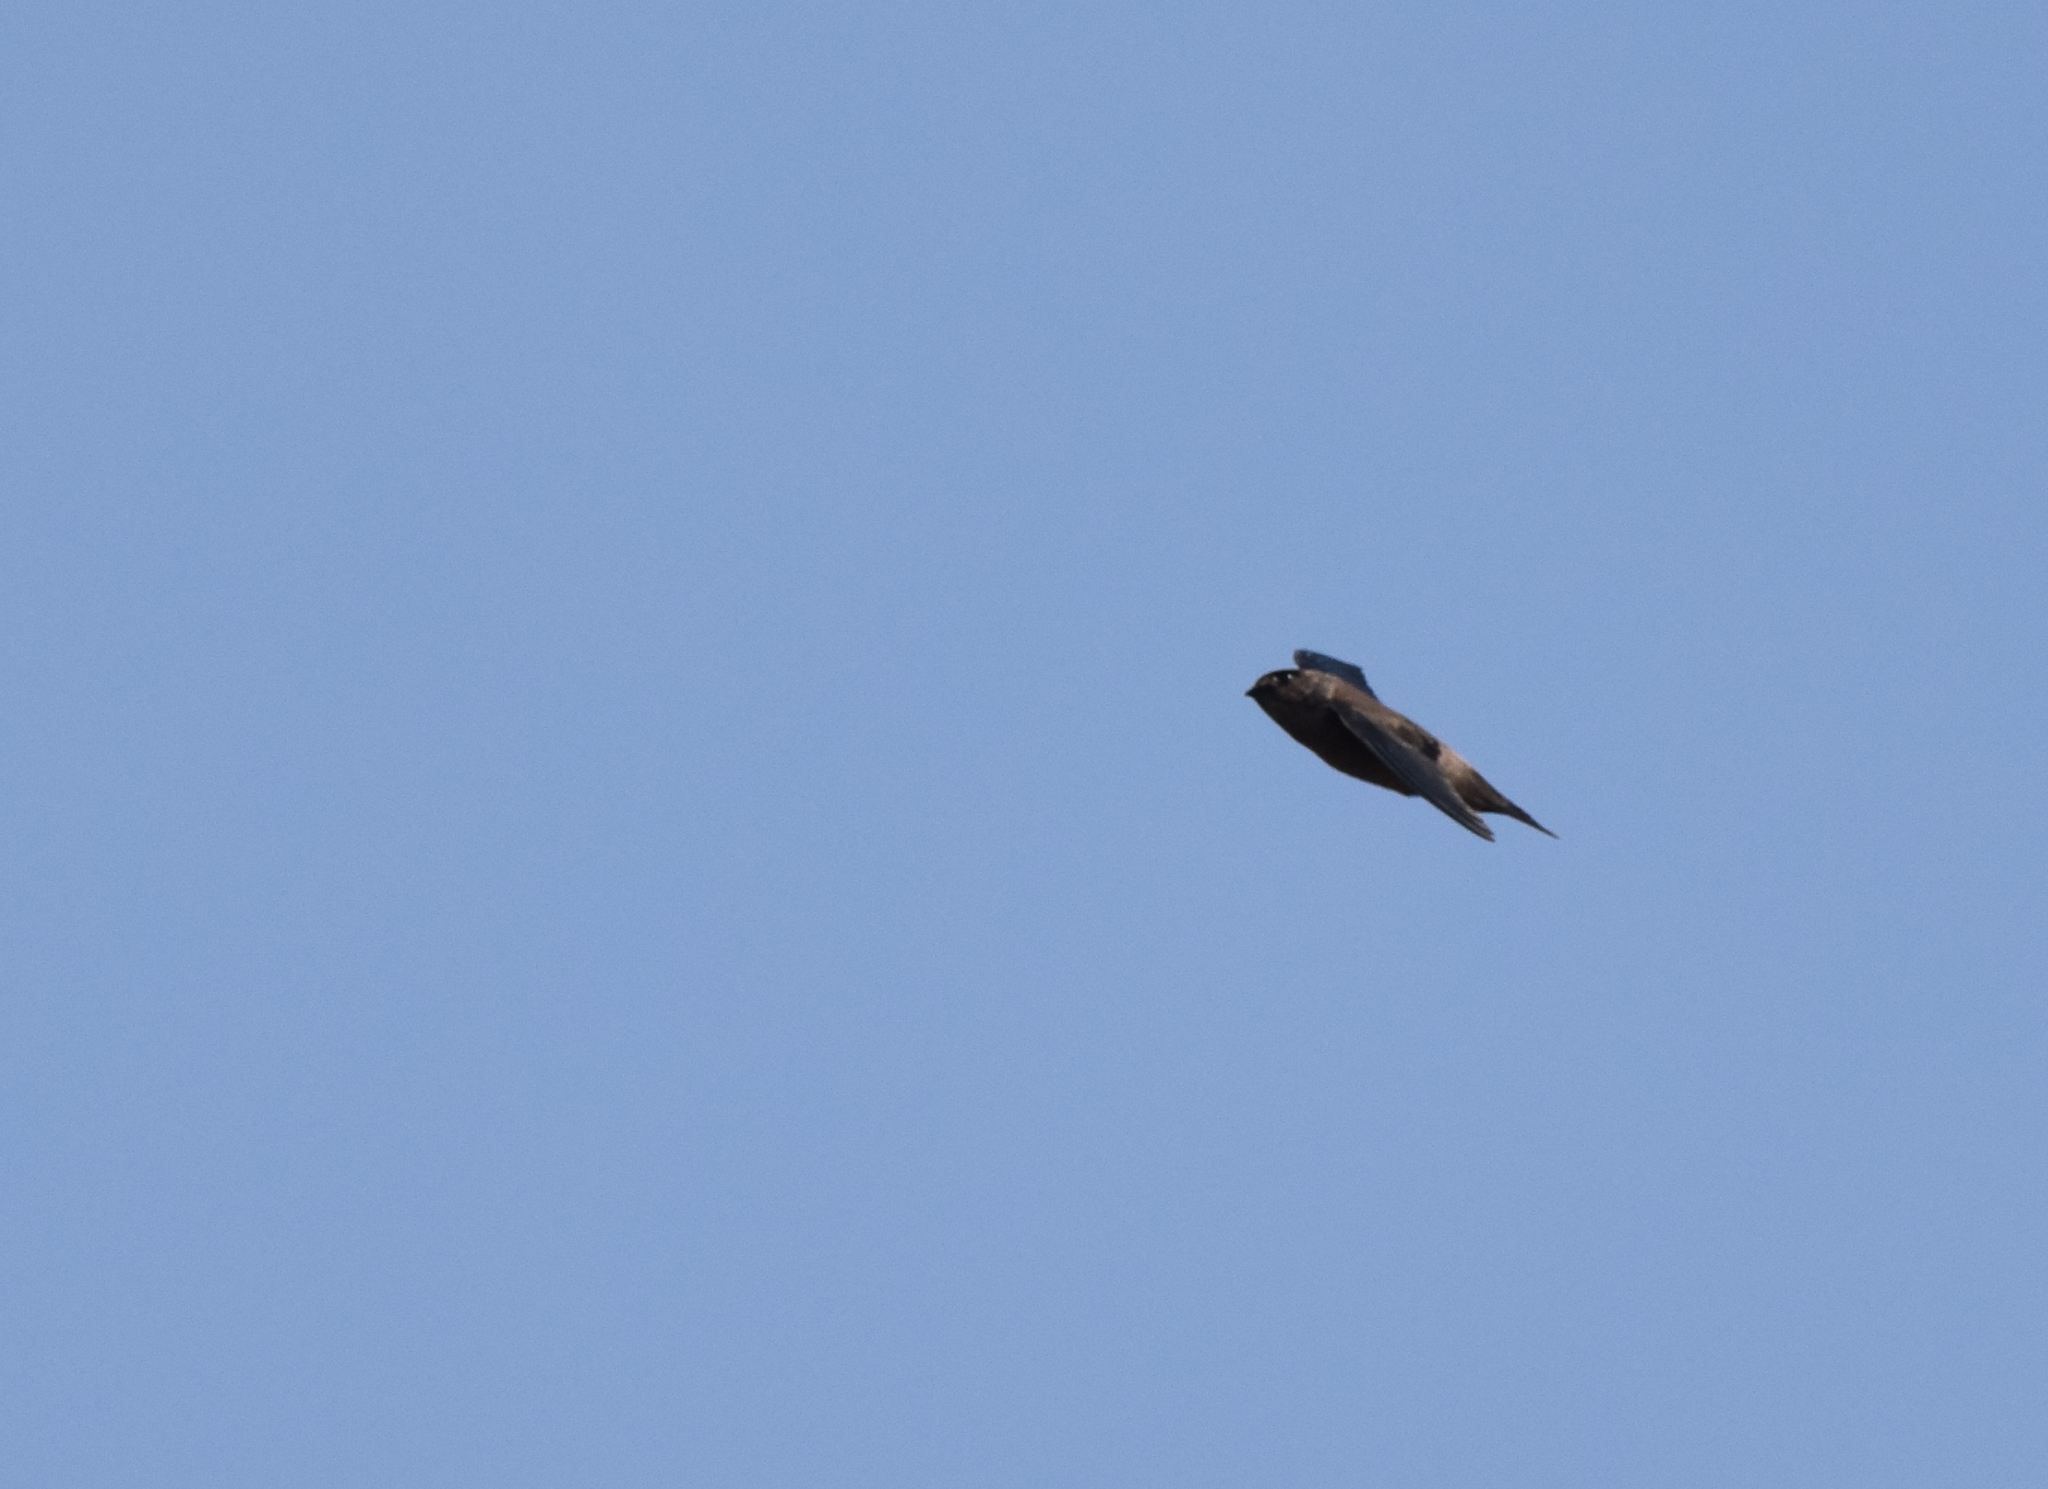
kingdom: Animalia
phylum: Chordata
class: Aves
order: Apodiformes
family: Apodidae
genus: Aerodramus
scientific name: Aerodramus germani
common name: Germain's swiftlet
